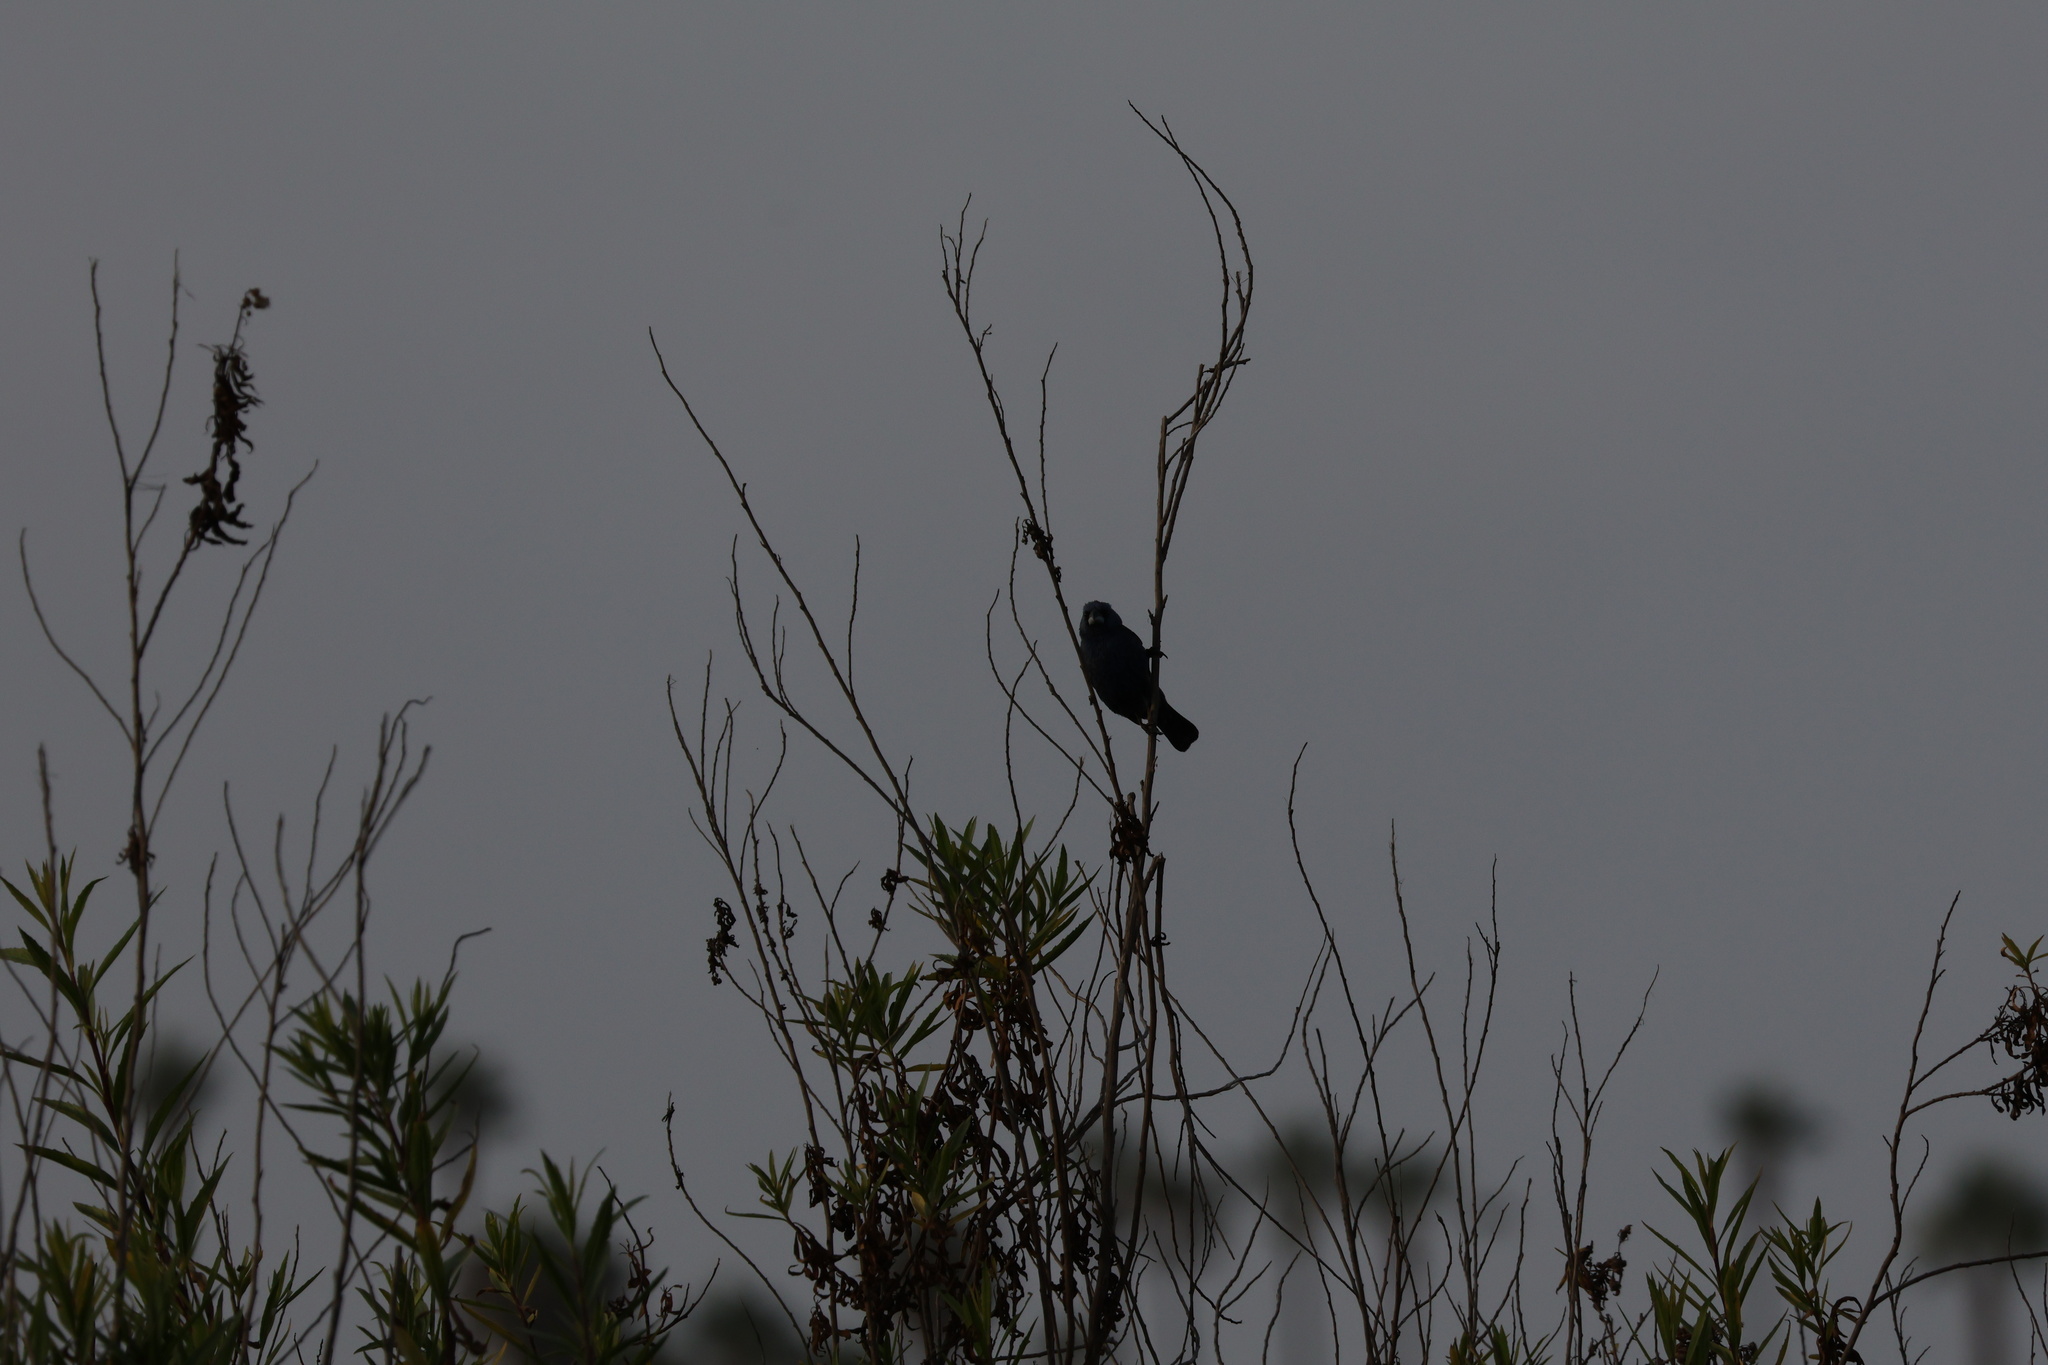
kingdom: Animalia
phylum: Chordata
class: Aves
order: Passeriformes
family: Cardinalidae
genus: Passerina
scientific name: Passerina caerulea
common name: Blue grosbeak
